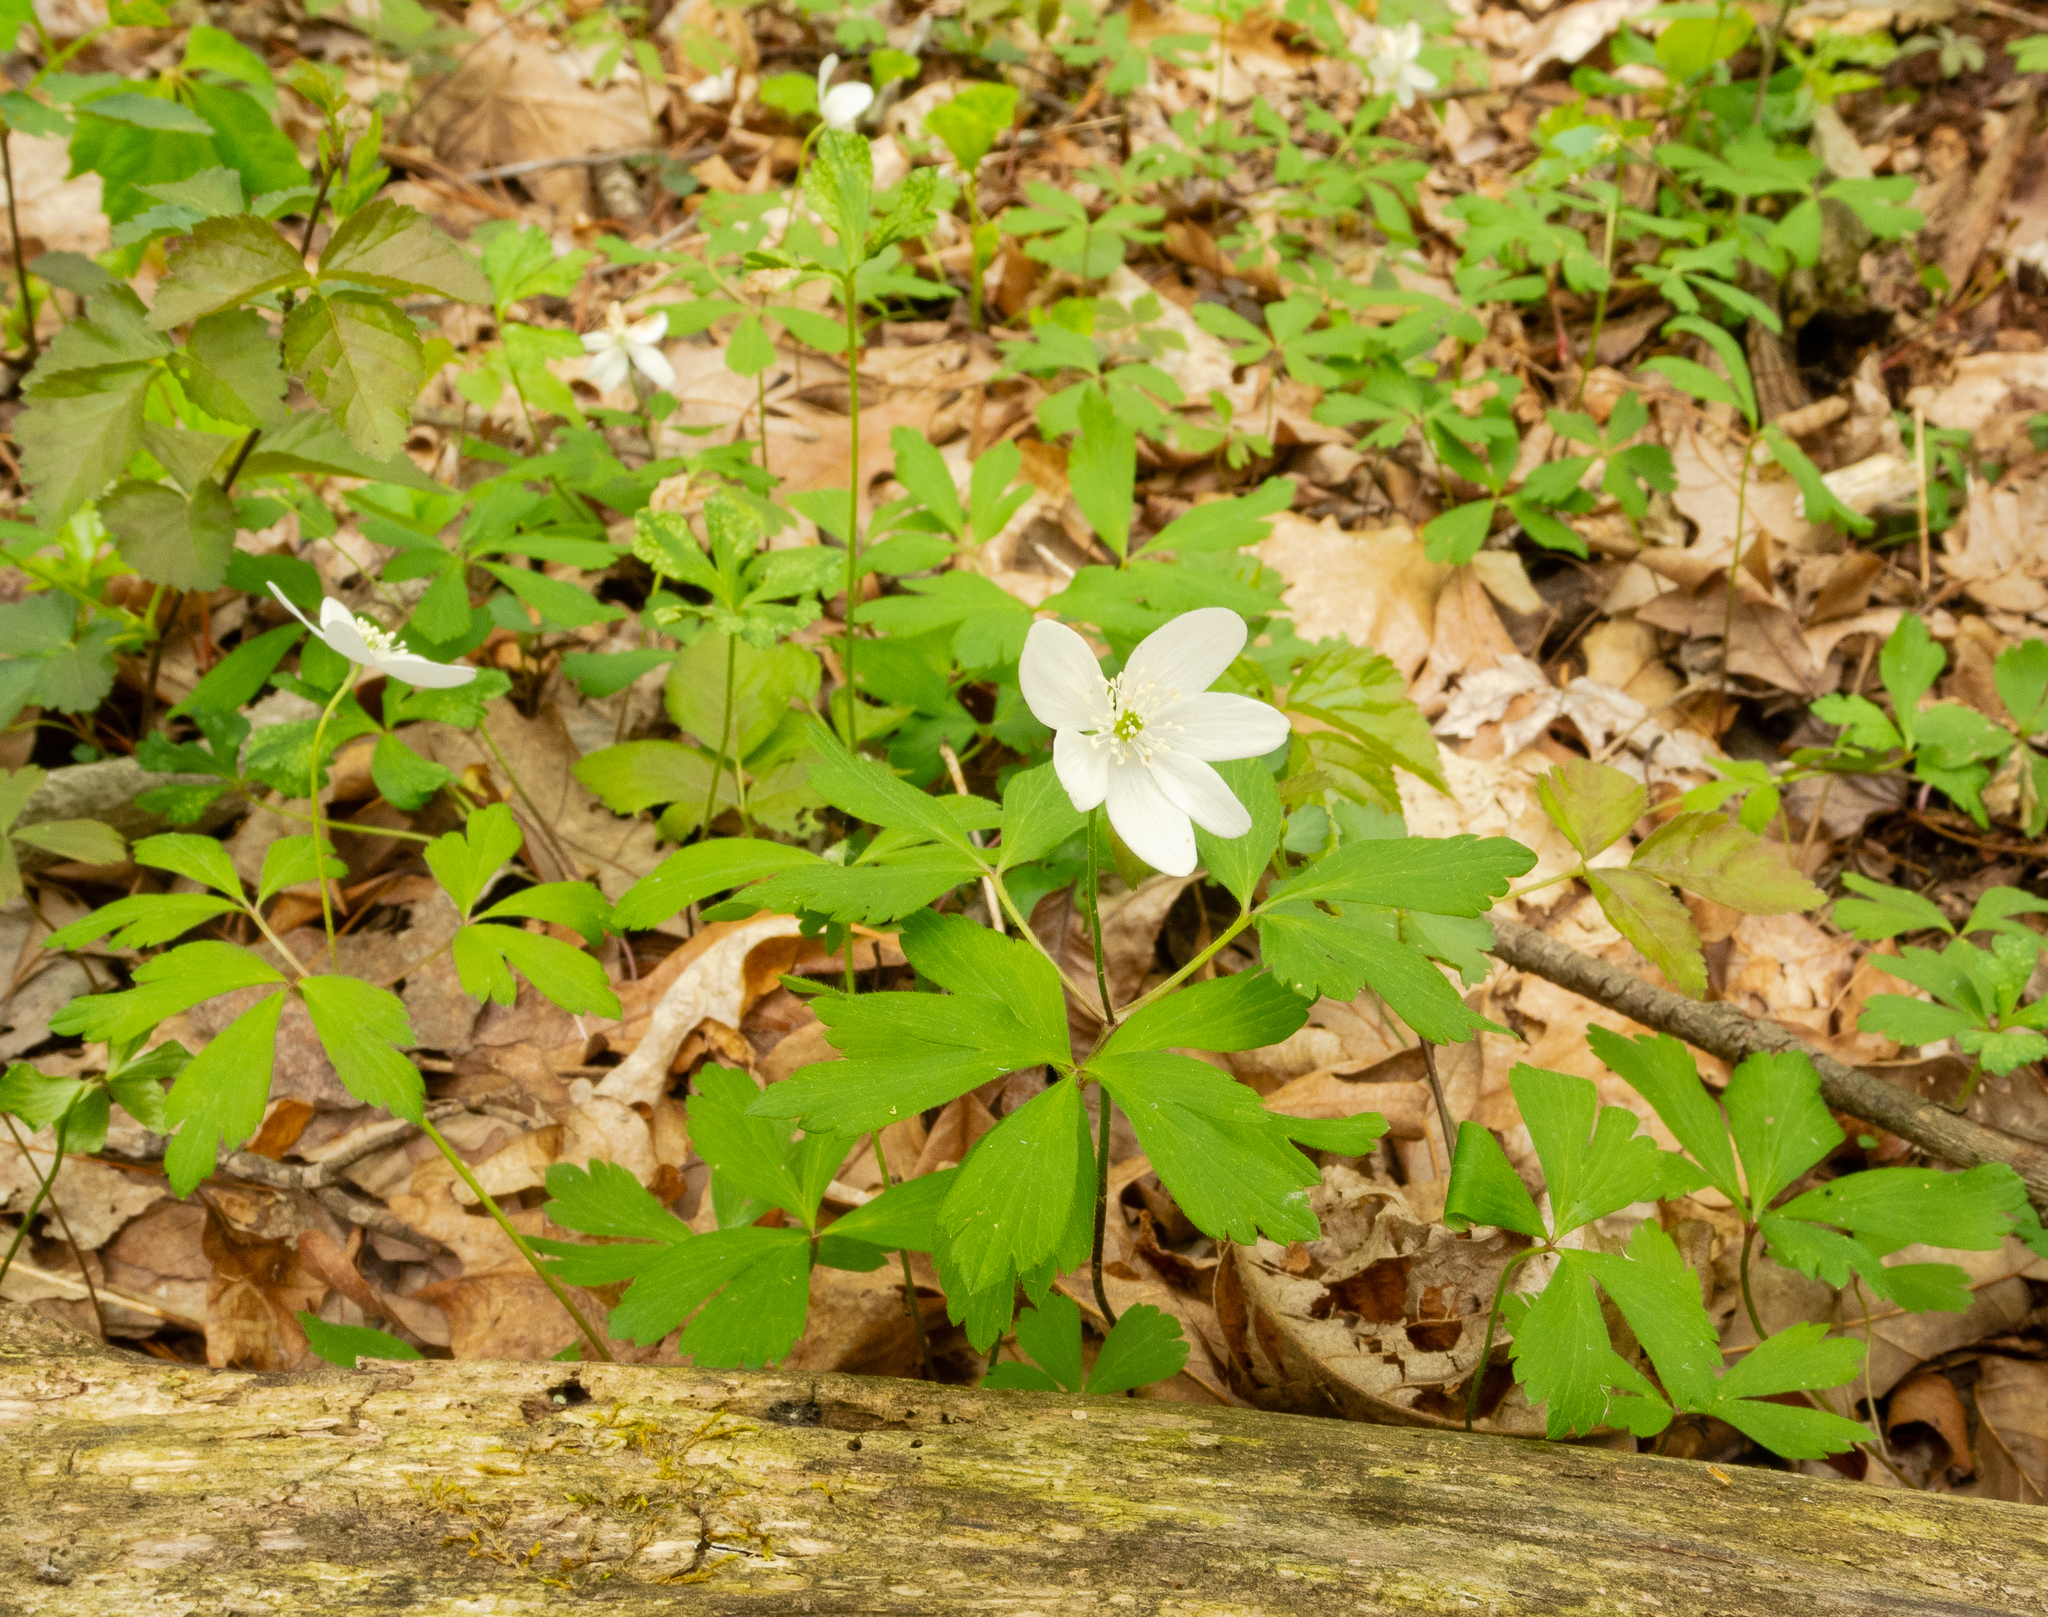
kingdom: Plantae
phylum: Tracheophyta
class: Magnoliopsida
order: Ranunculales
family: Ranunculaceae
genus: Anemone
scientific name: Anemone quinquefolia
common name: Wood anemone
